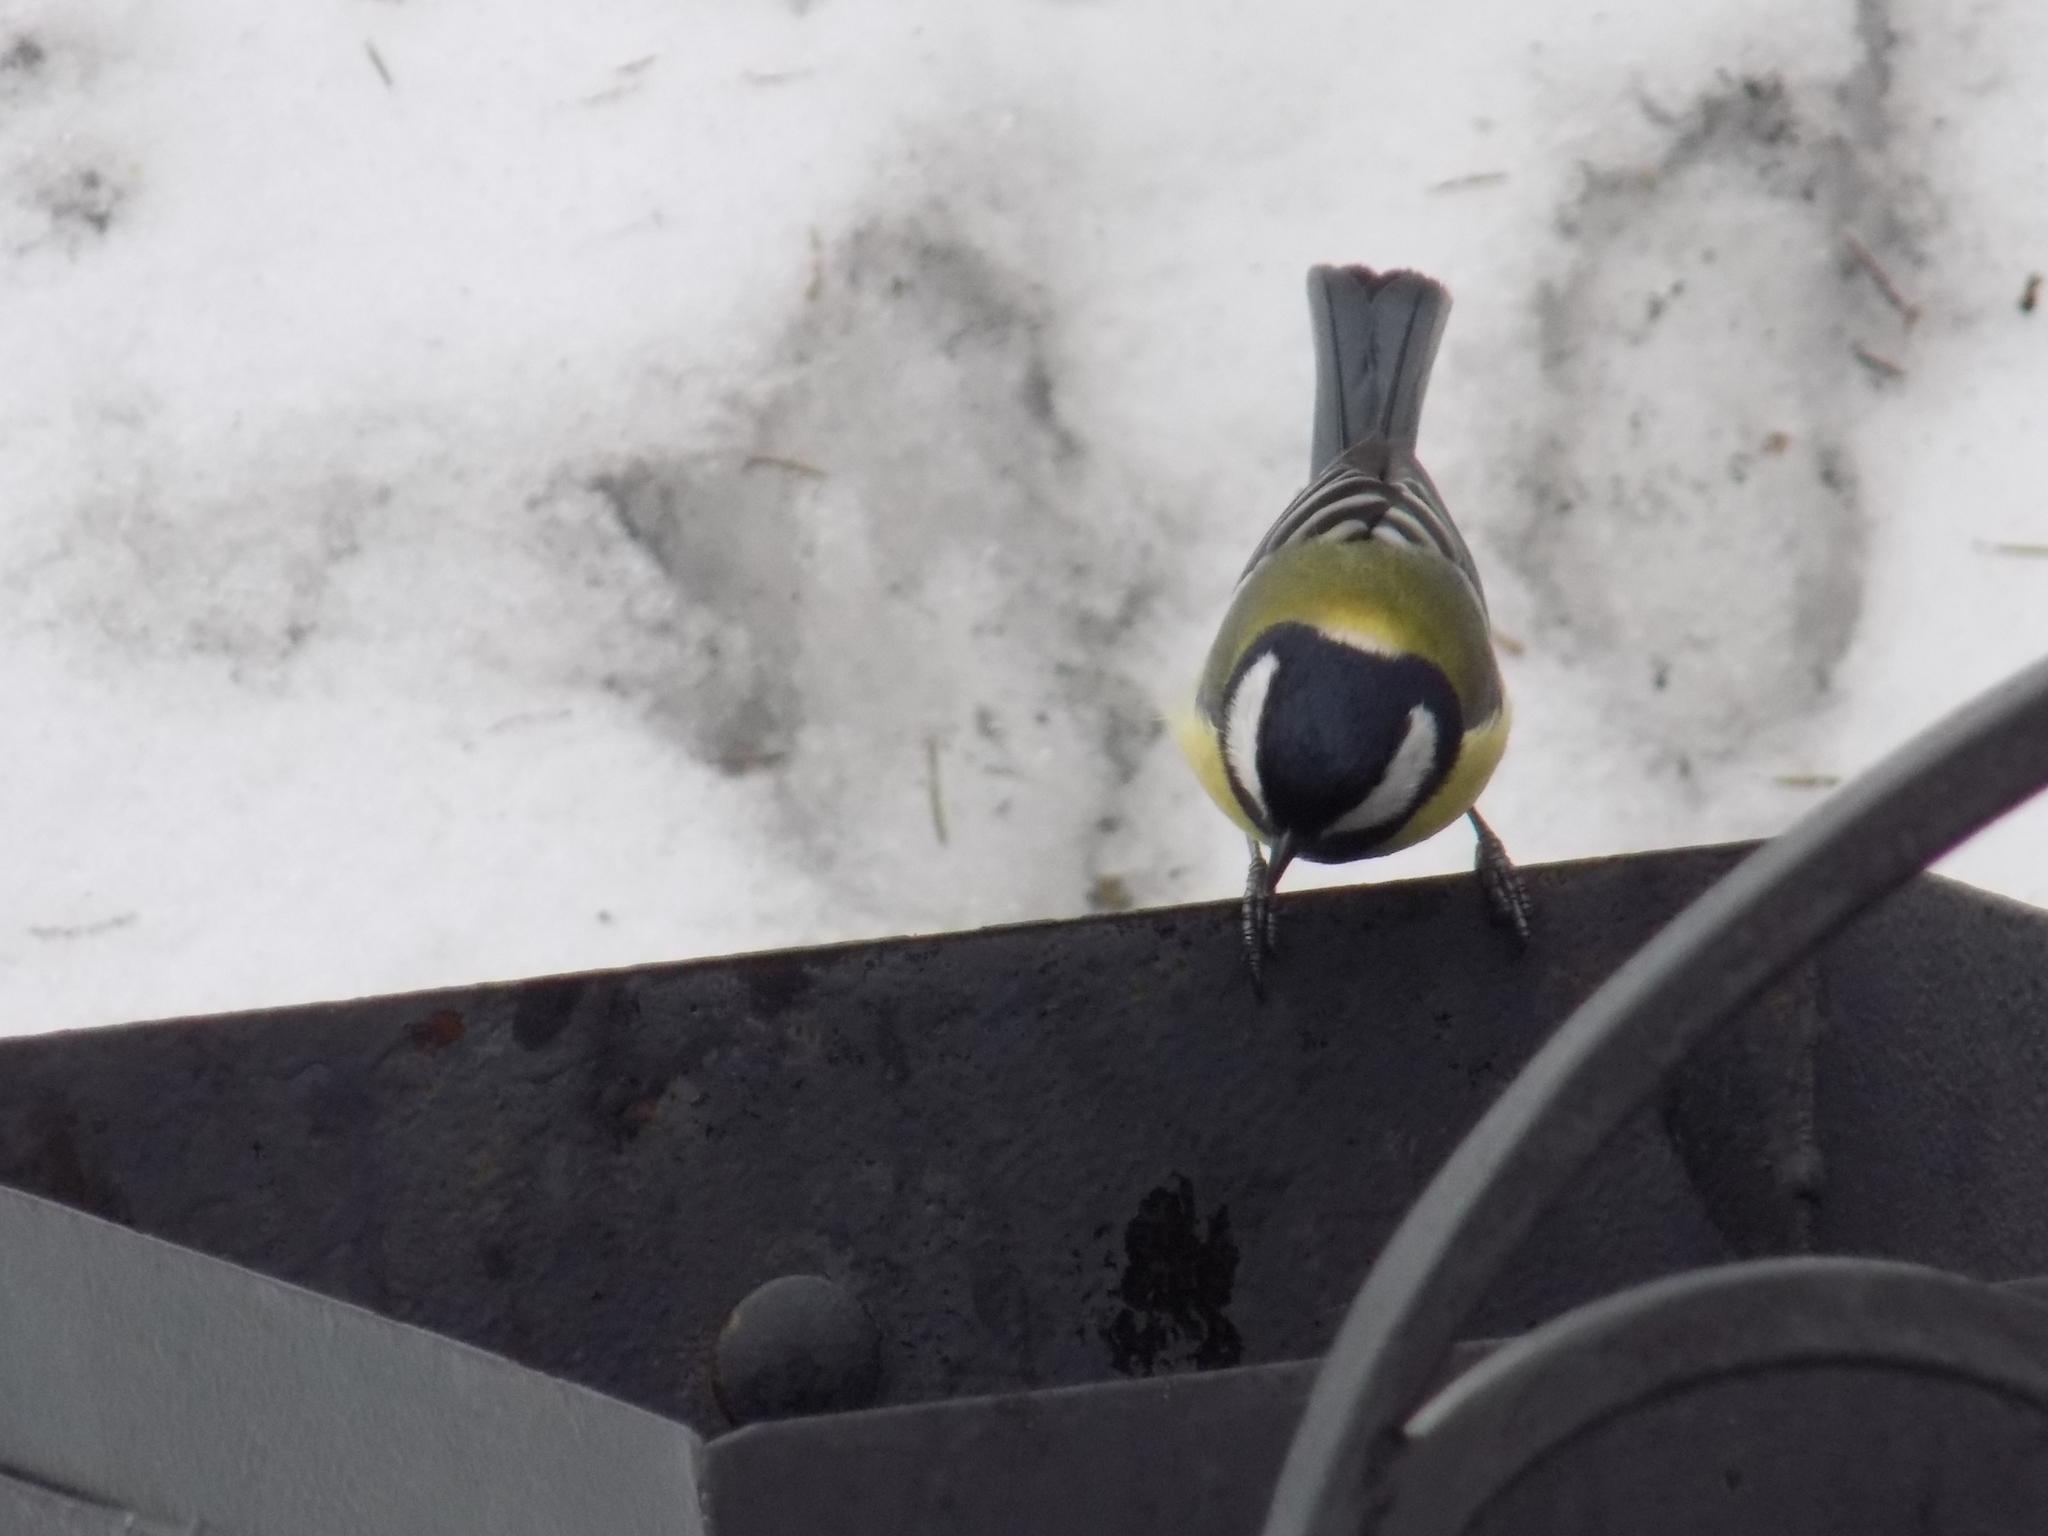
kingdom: Animalia
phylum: Chordata
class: Aves
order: Passeriformes
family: Paridae
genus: Parus
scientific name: Parus major
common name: Great tit
